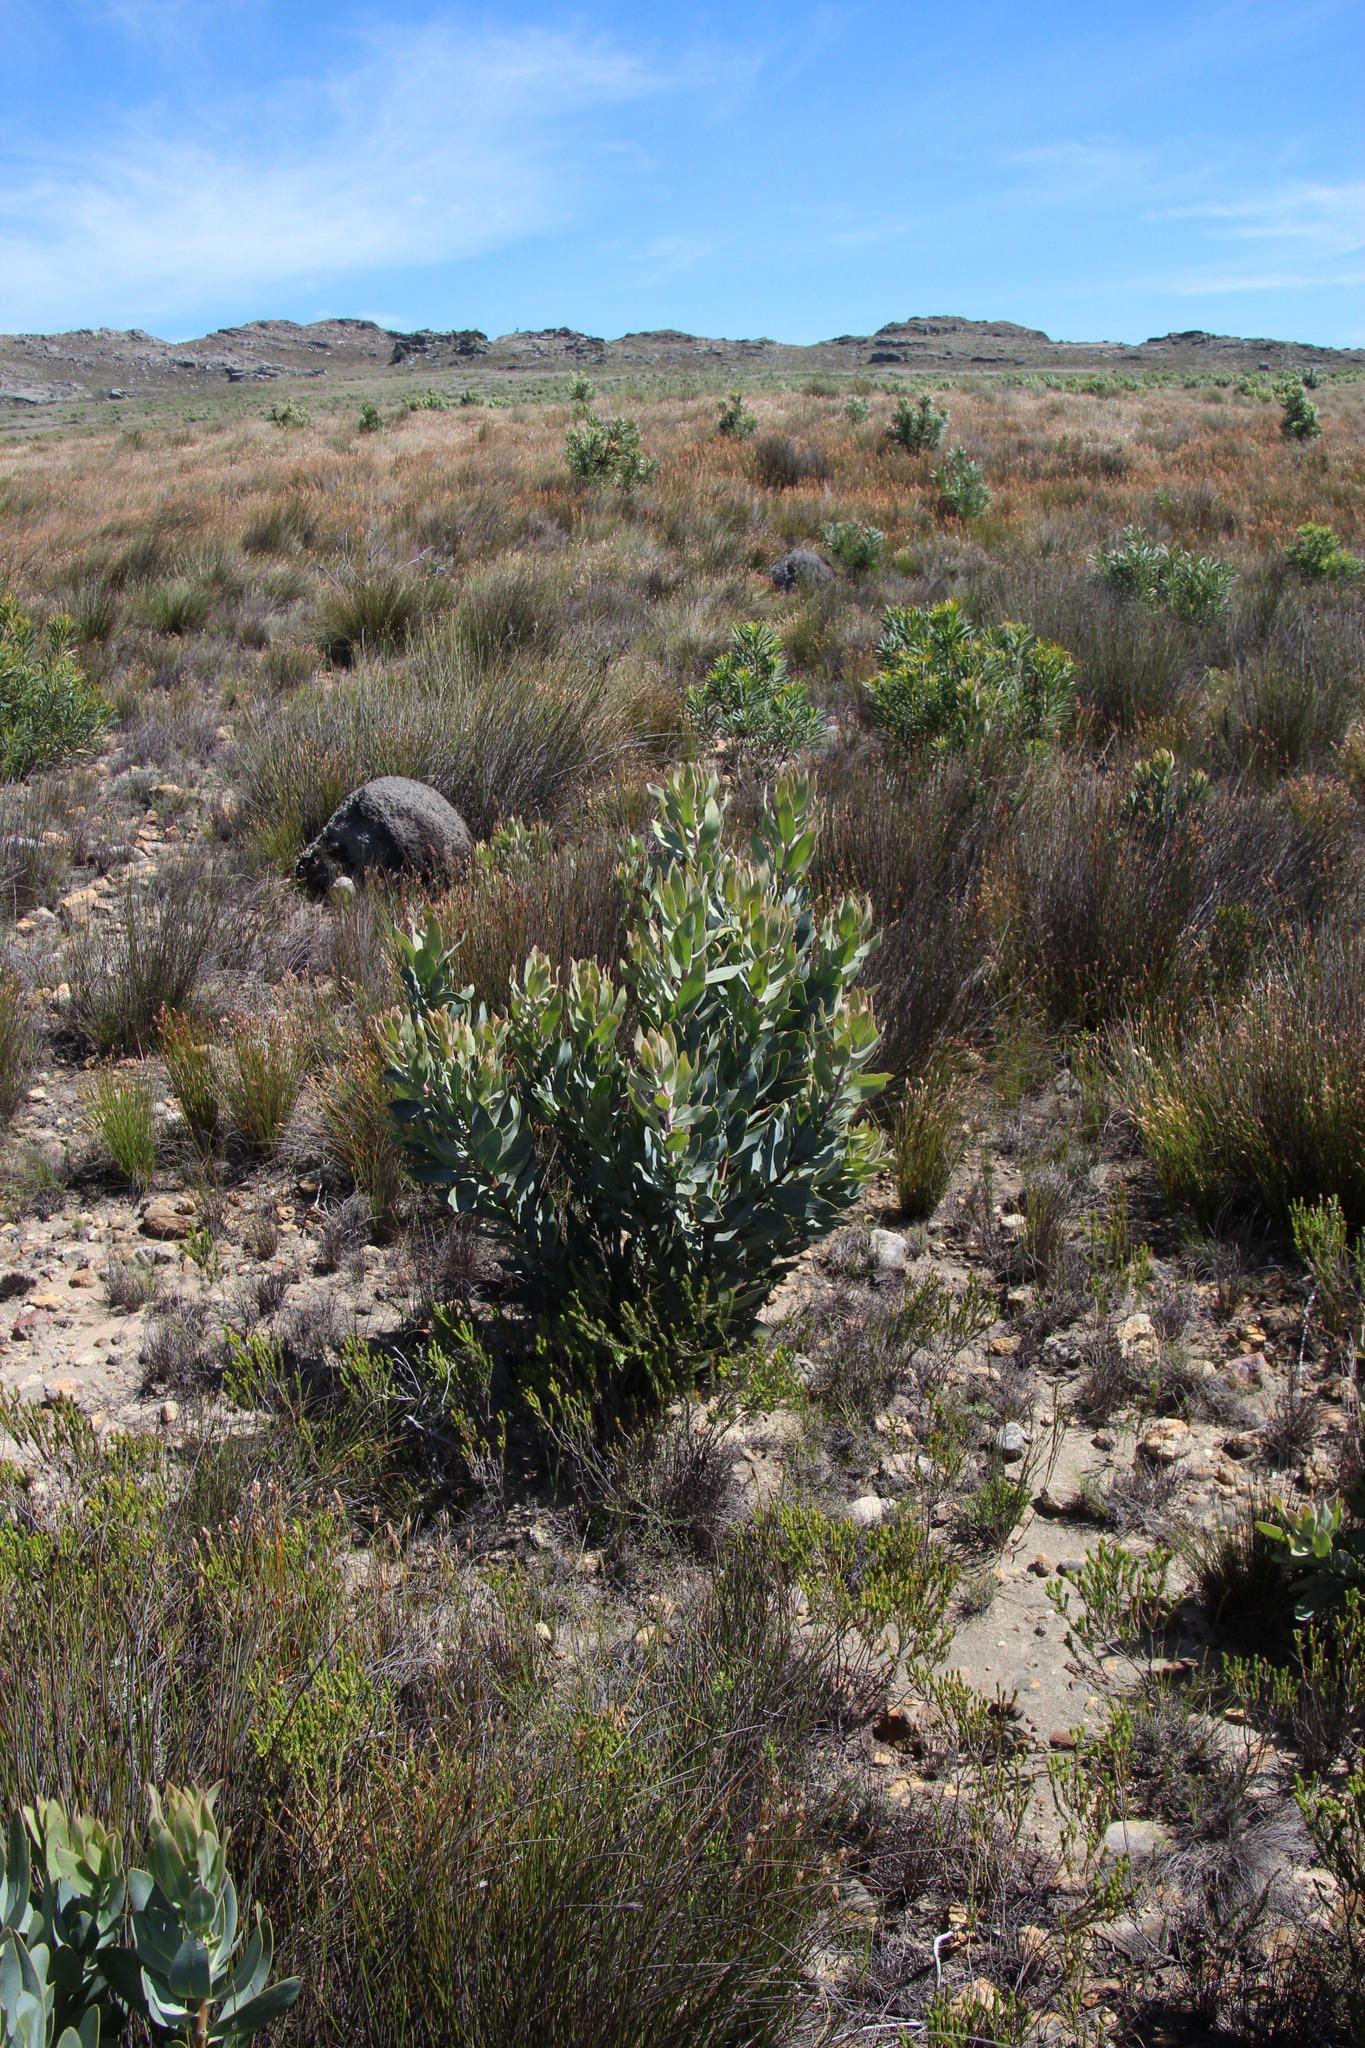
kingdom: Plantae
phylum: Tracheophyta
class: Magnoliopsida
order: Proteales
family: Proteaceae
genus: Protea
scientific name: Protea laurifolia
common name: Grey-leaf sugarbsh
